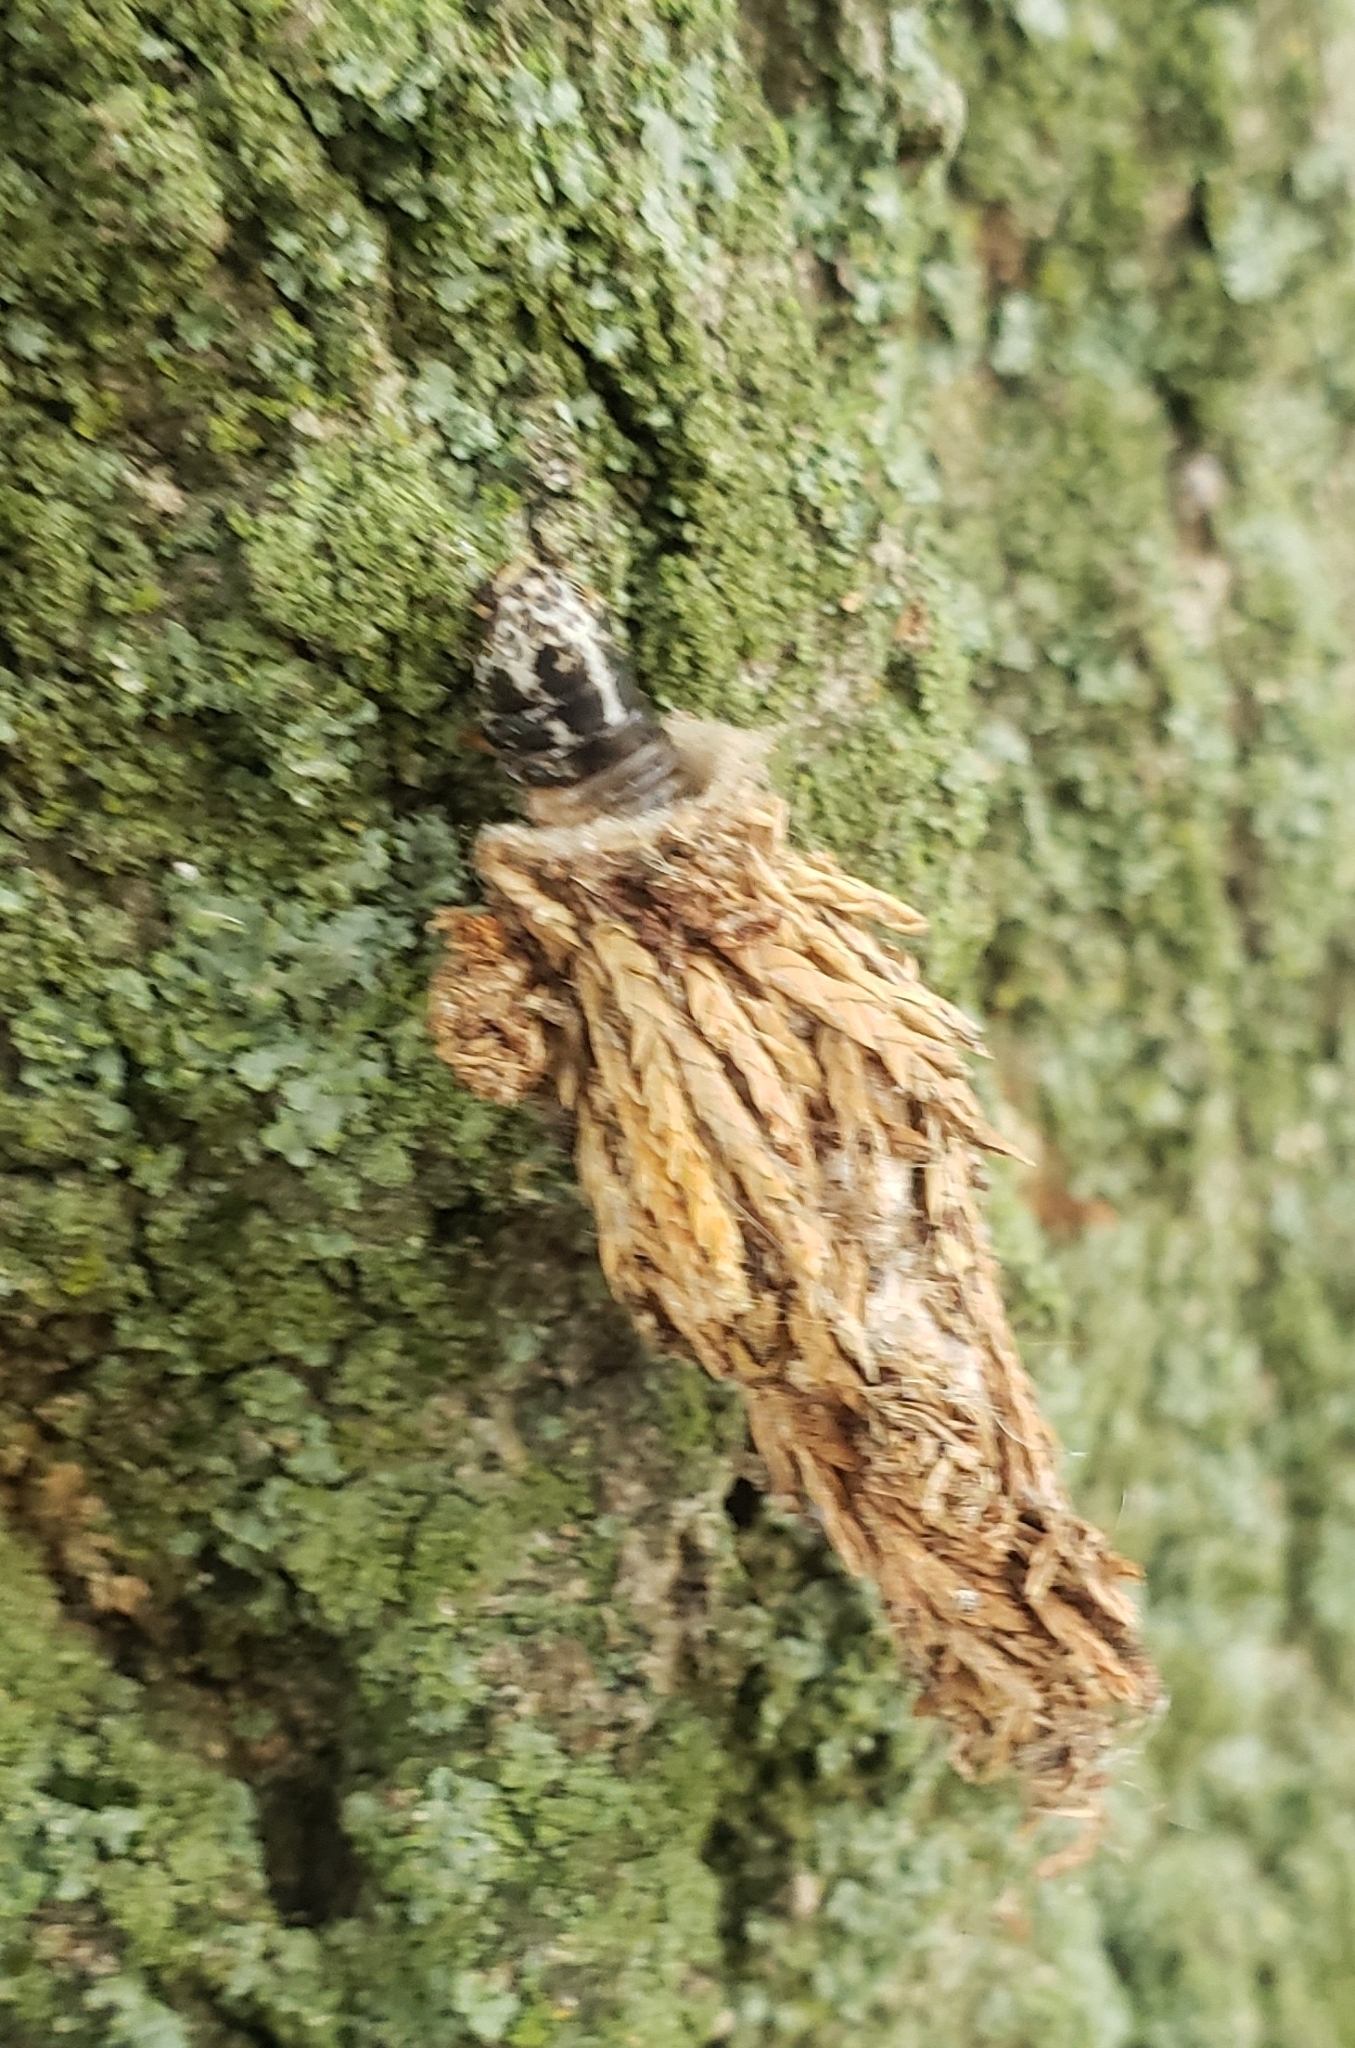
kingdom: Animalia
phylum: Arthropoda
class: Insecta
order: Lepidoptera
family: Psychidae
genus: Thyridopteryx
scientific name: Thyridopteryx ephemeraeformis
